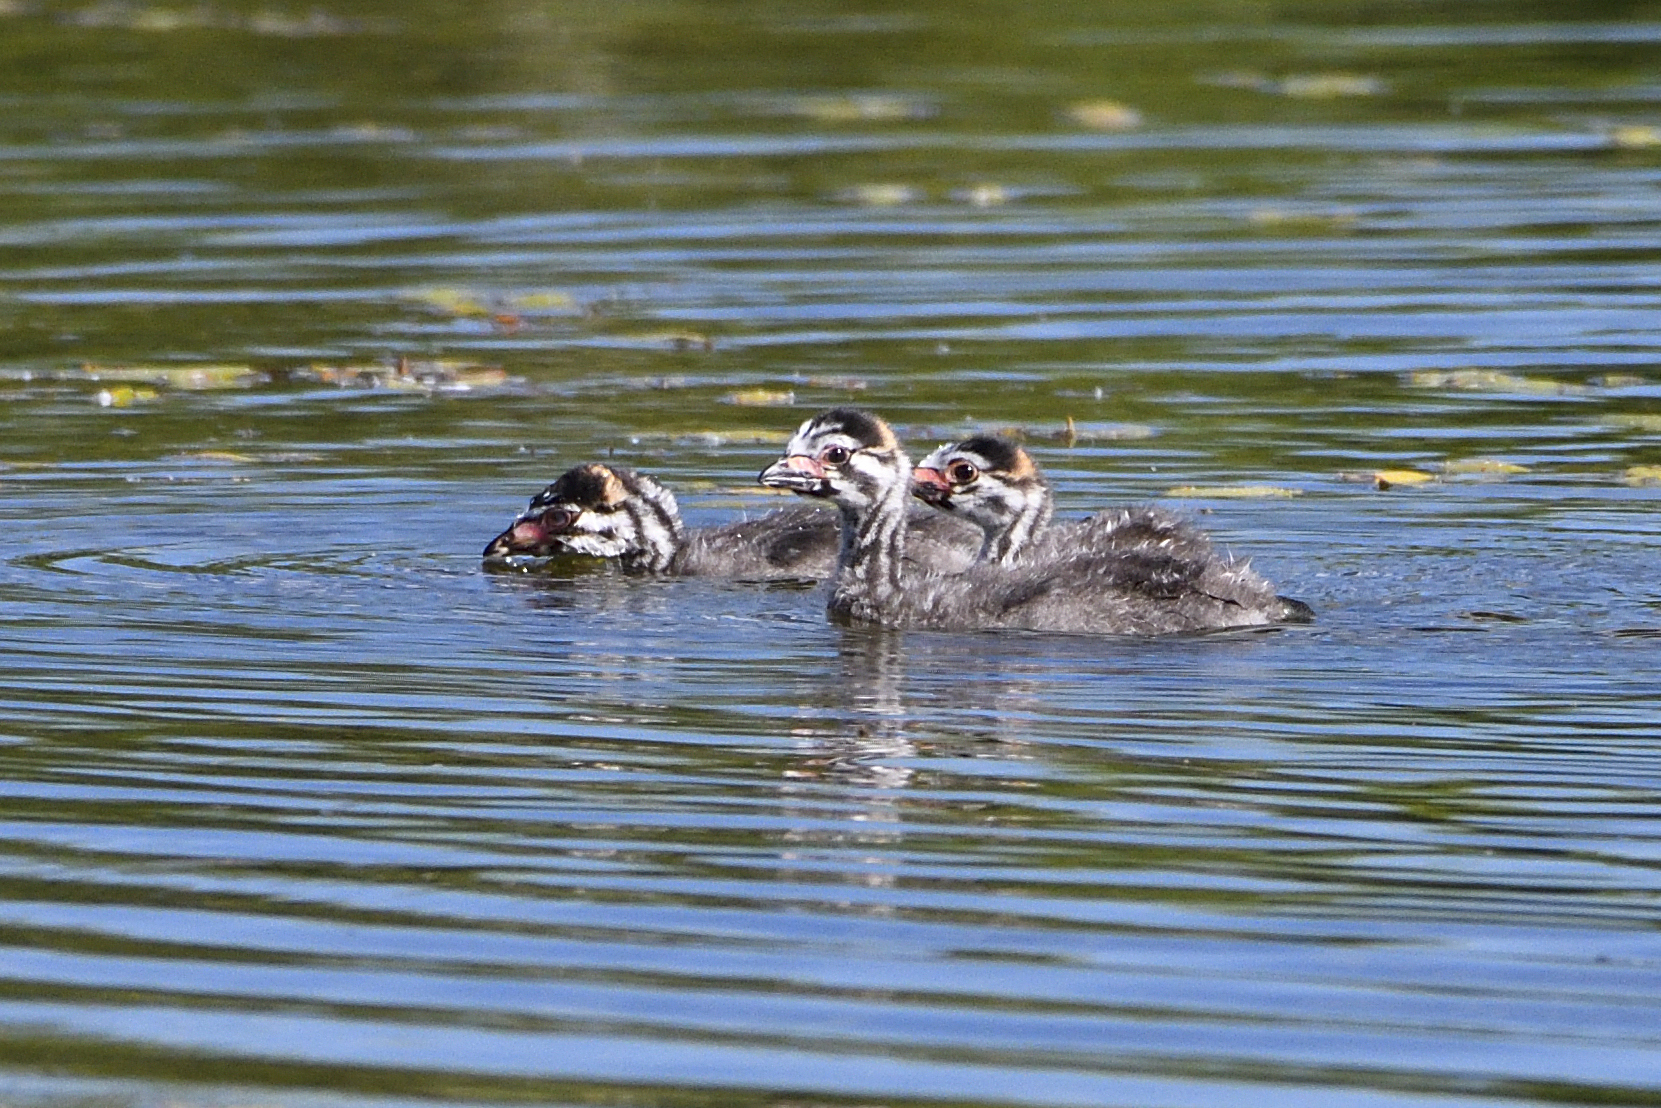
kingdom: Animalia
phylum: Chordata
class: Aves
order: Podicipediformes
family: Podicipedidae
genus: Podilymbus
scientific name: Podilymbus podiceps
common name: Pied-billed grebe
